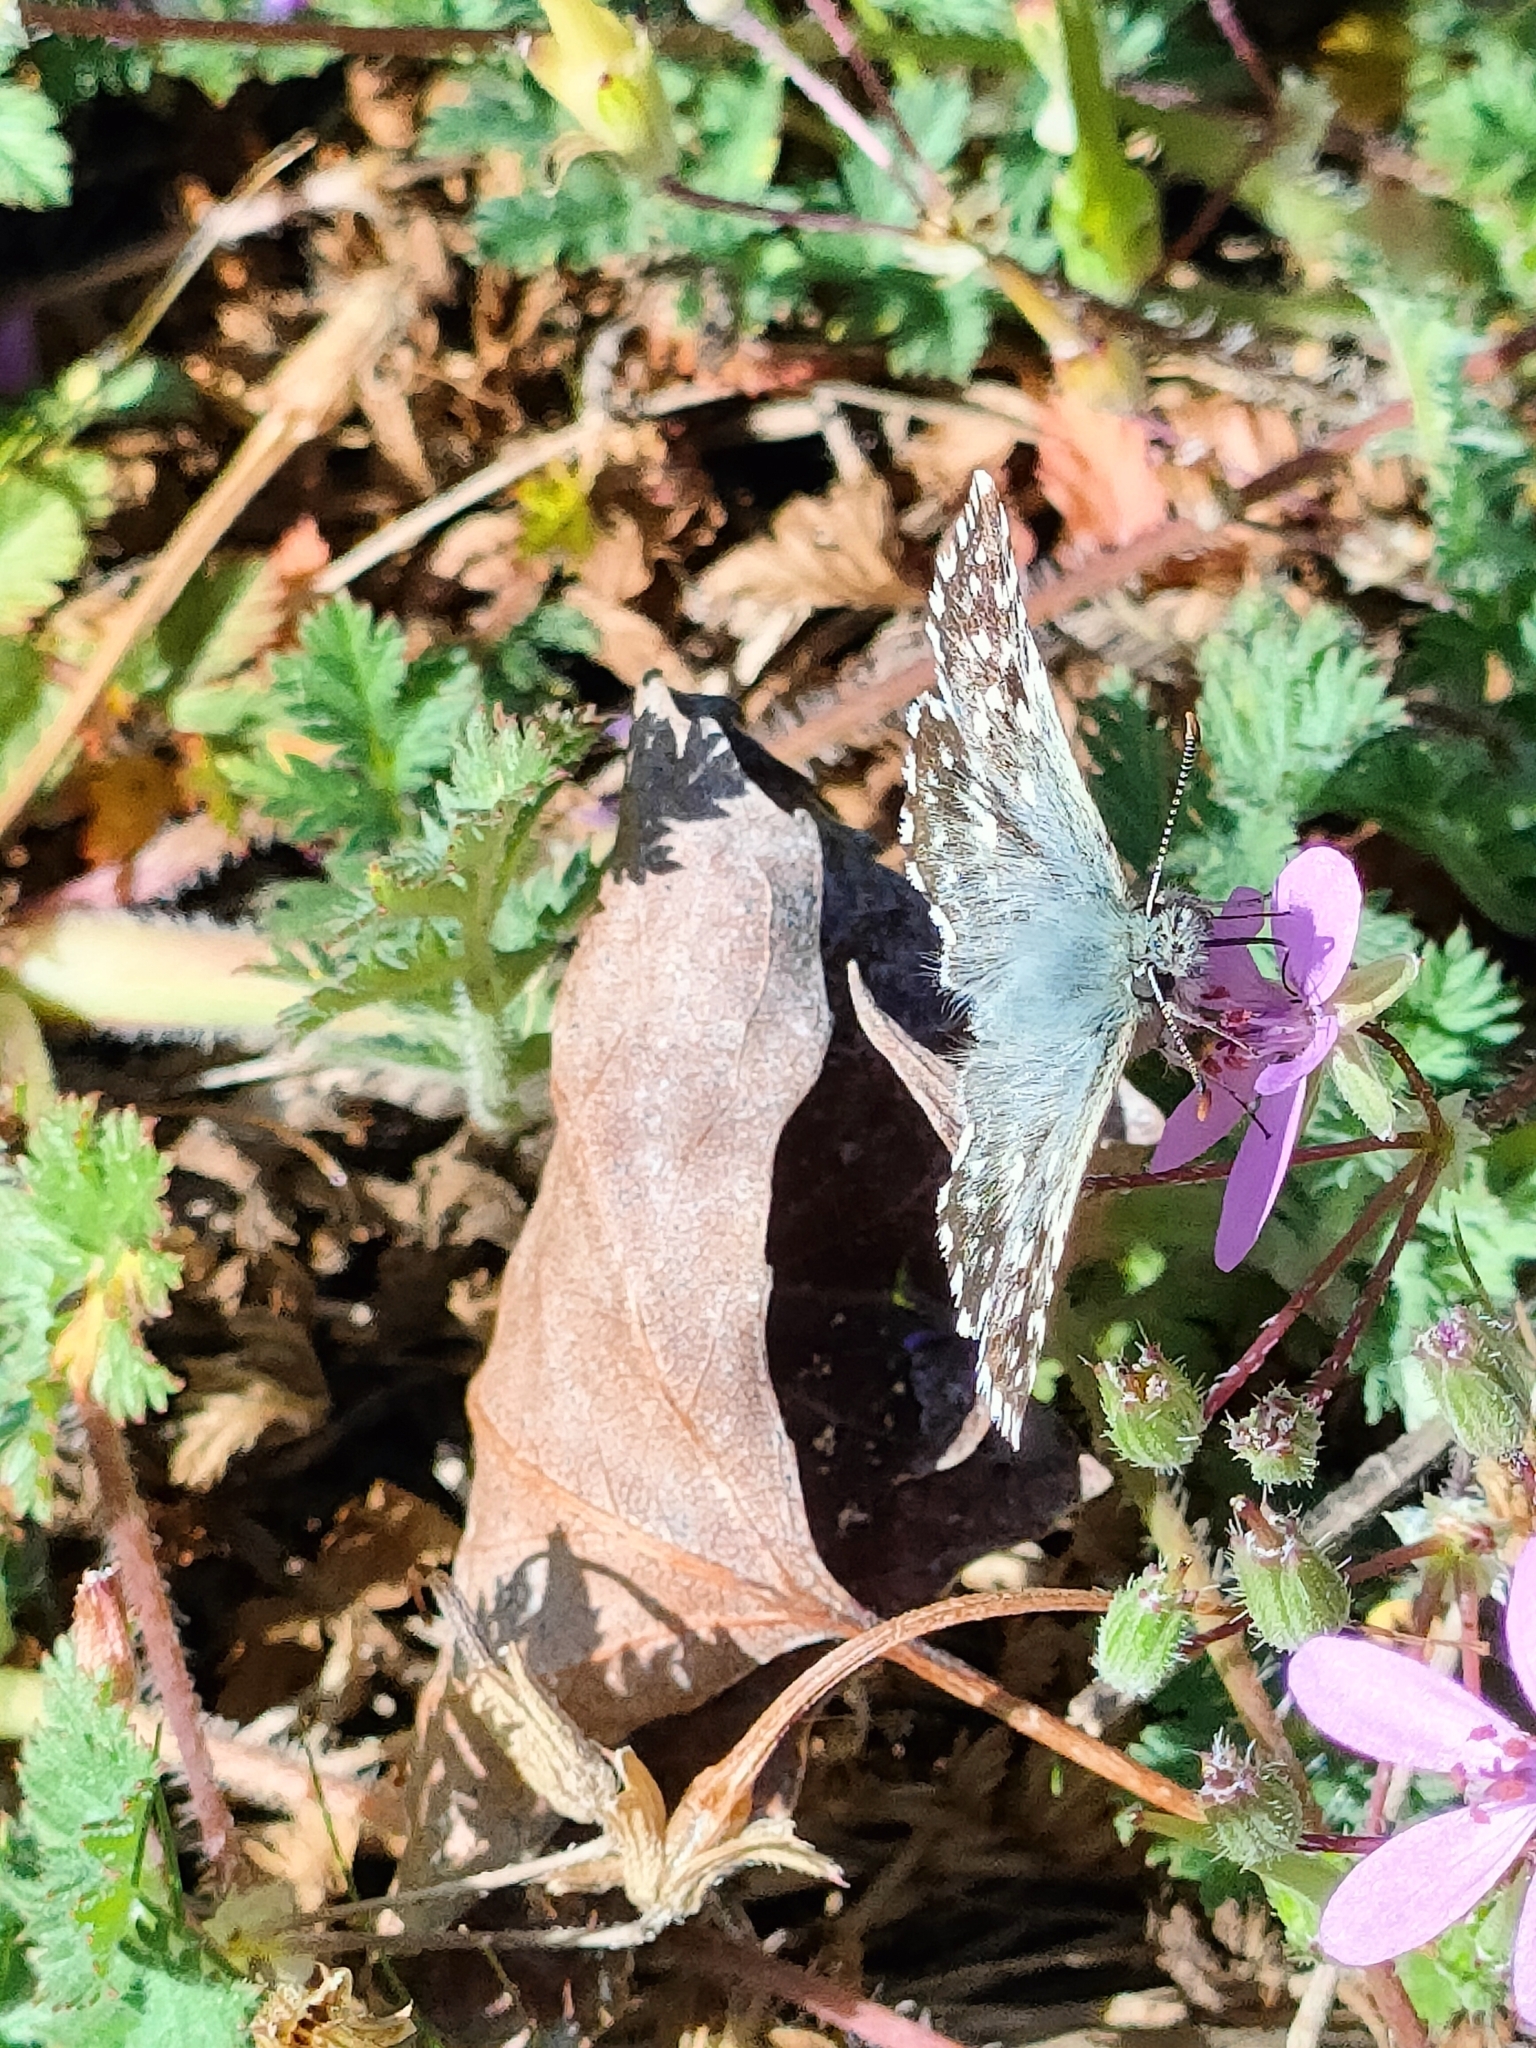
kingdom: Animalia
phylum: Arthropoda
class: Insecta
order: Lepidoptera
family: Hesperiidae
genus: Pyrgus
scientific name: Pyrgus malvoides
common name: Southern grizzled skipper
